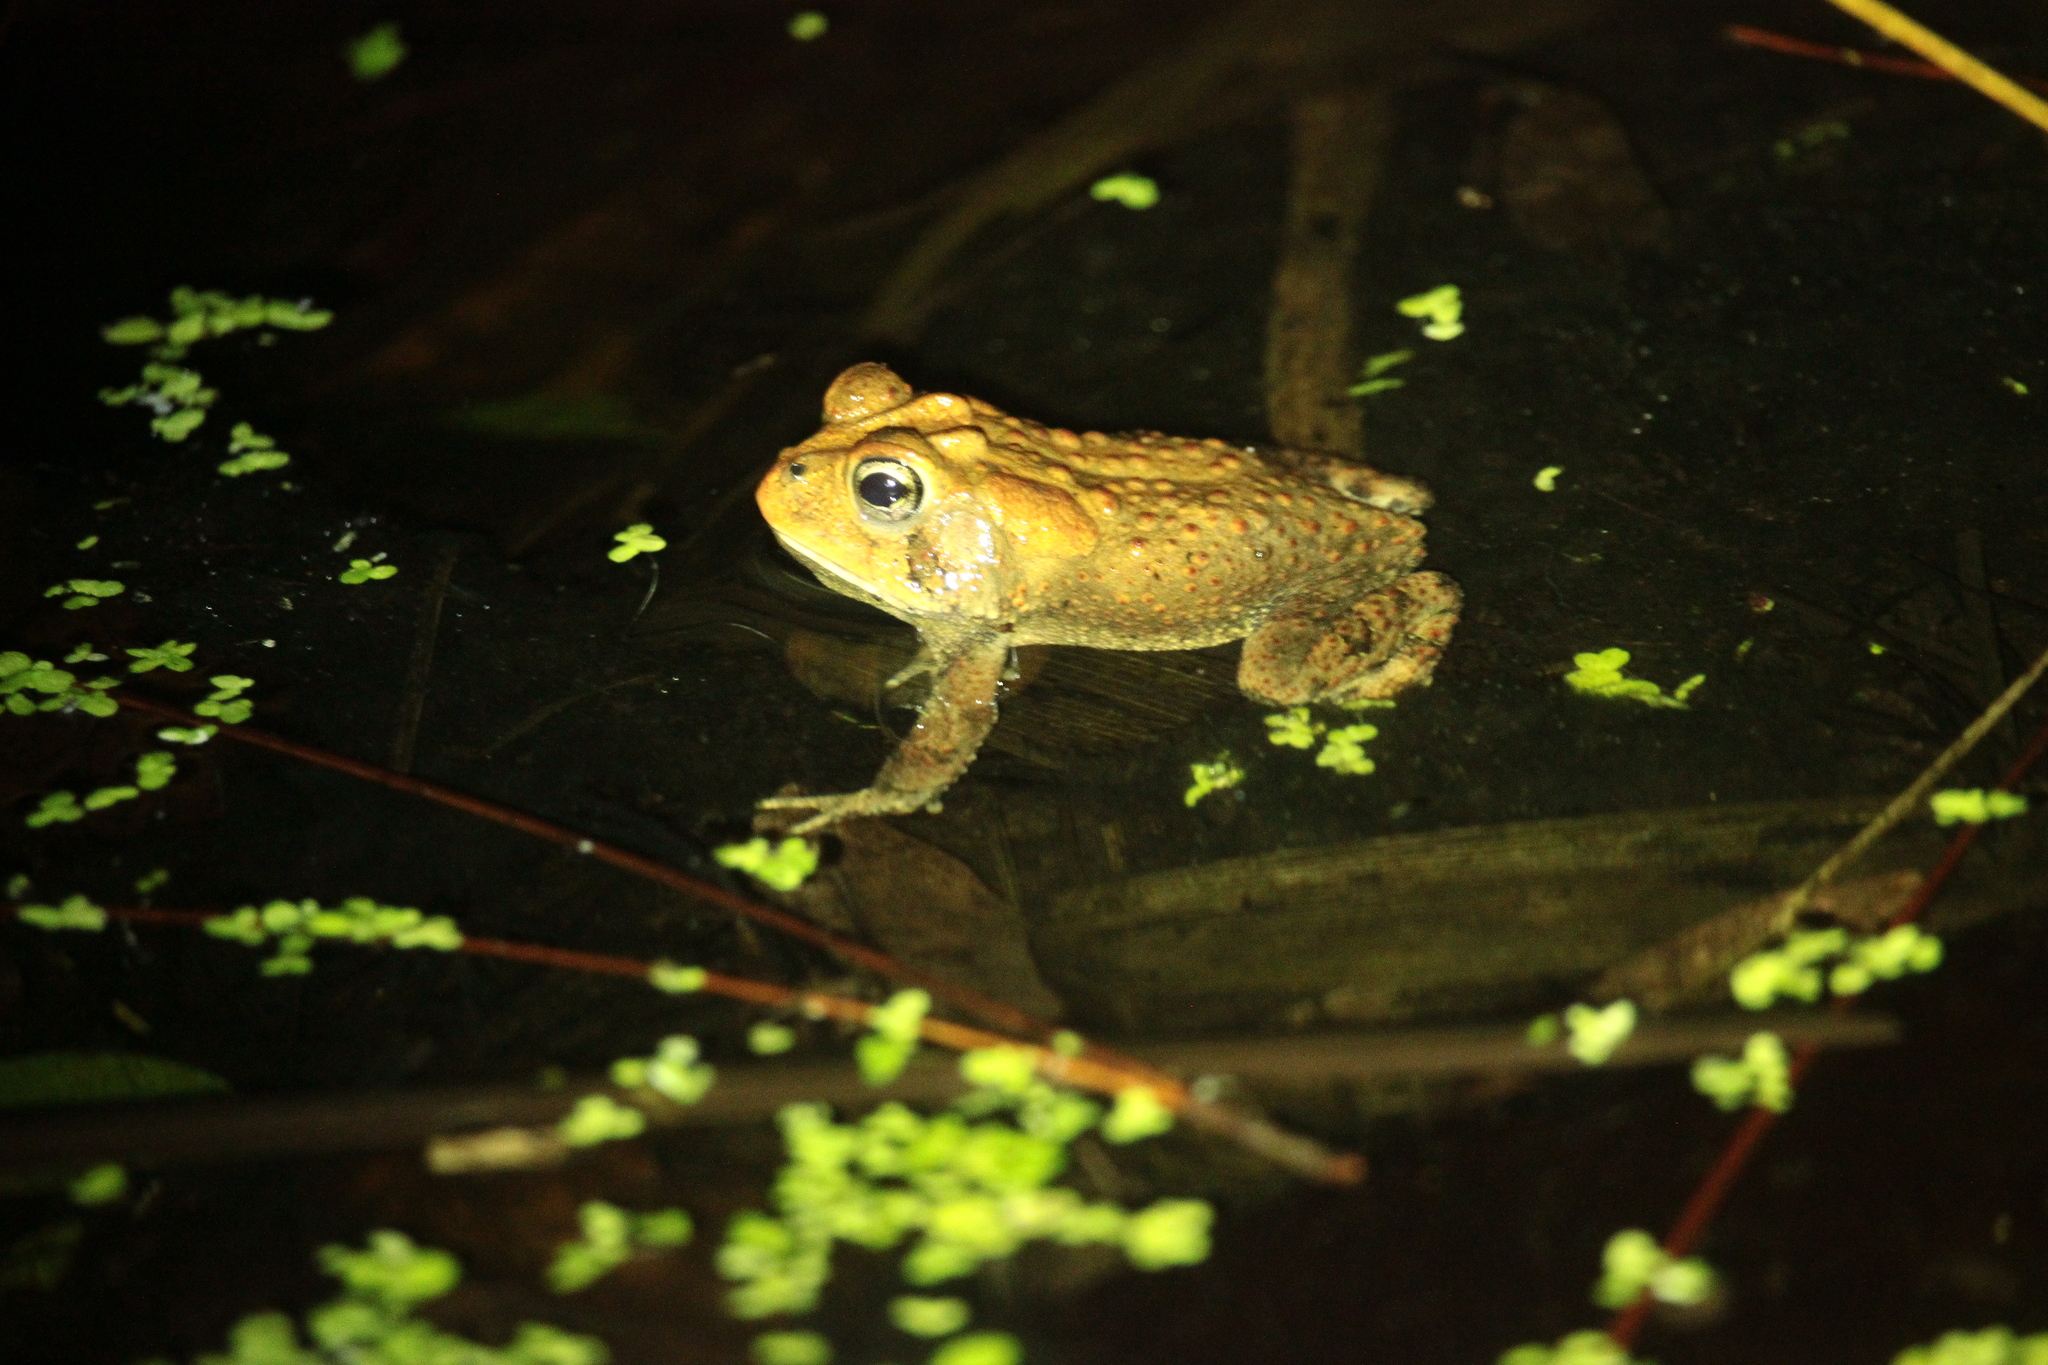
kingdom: Animalia
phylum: Chordata
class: Amphibia
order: Anura
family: Bufonidae
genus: Anaxyrus
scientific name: Anaxyrus terrestris
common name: Southern toad
